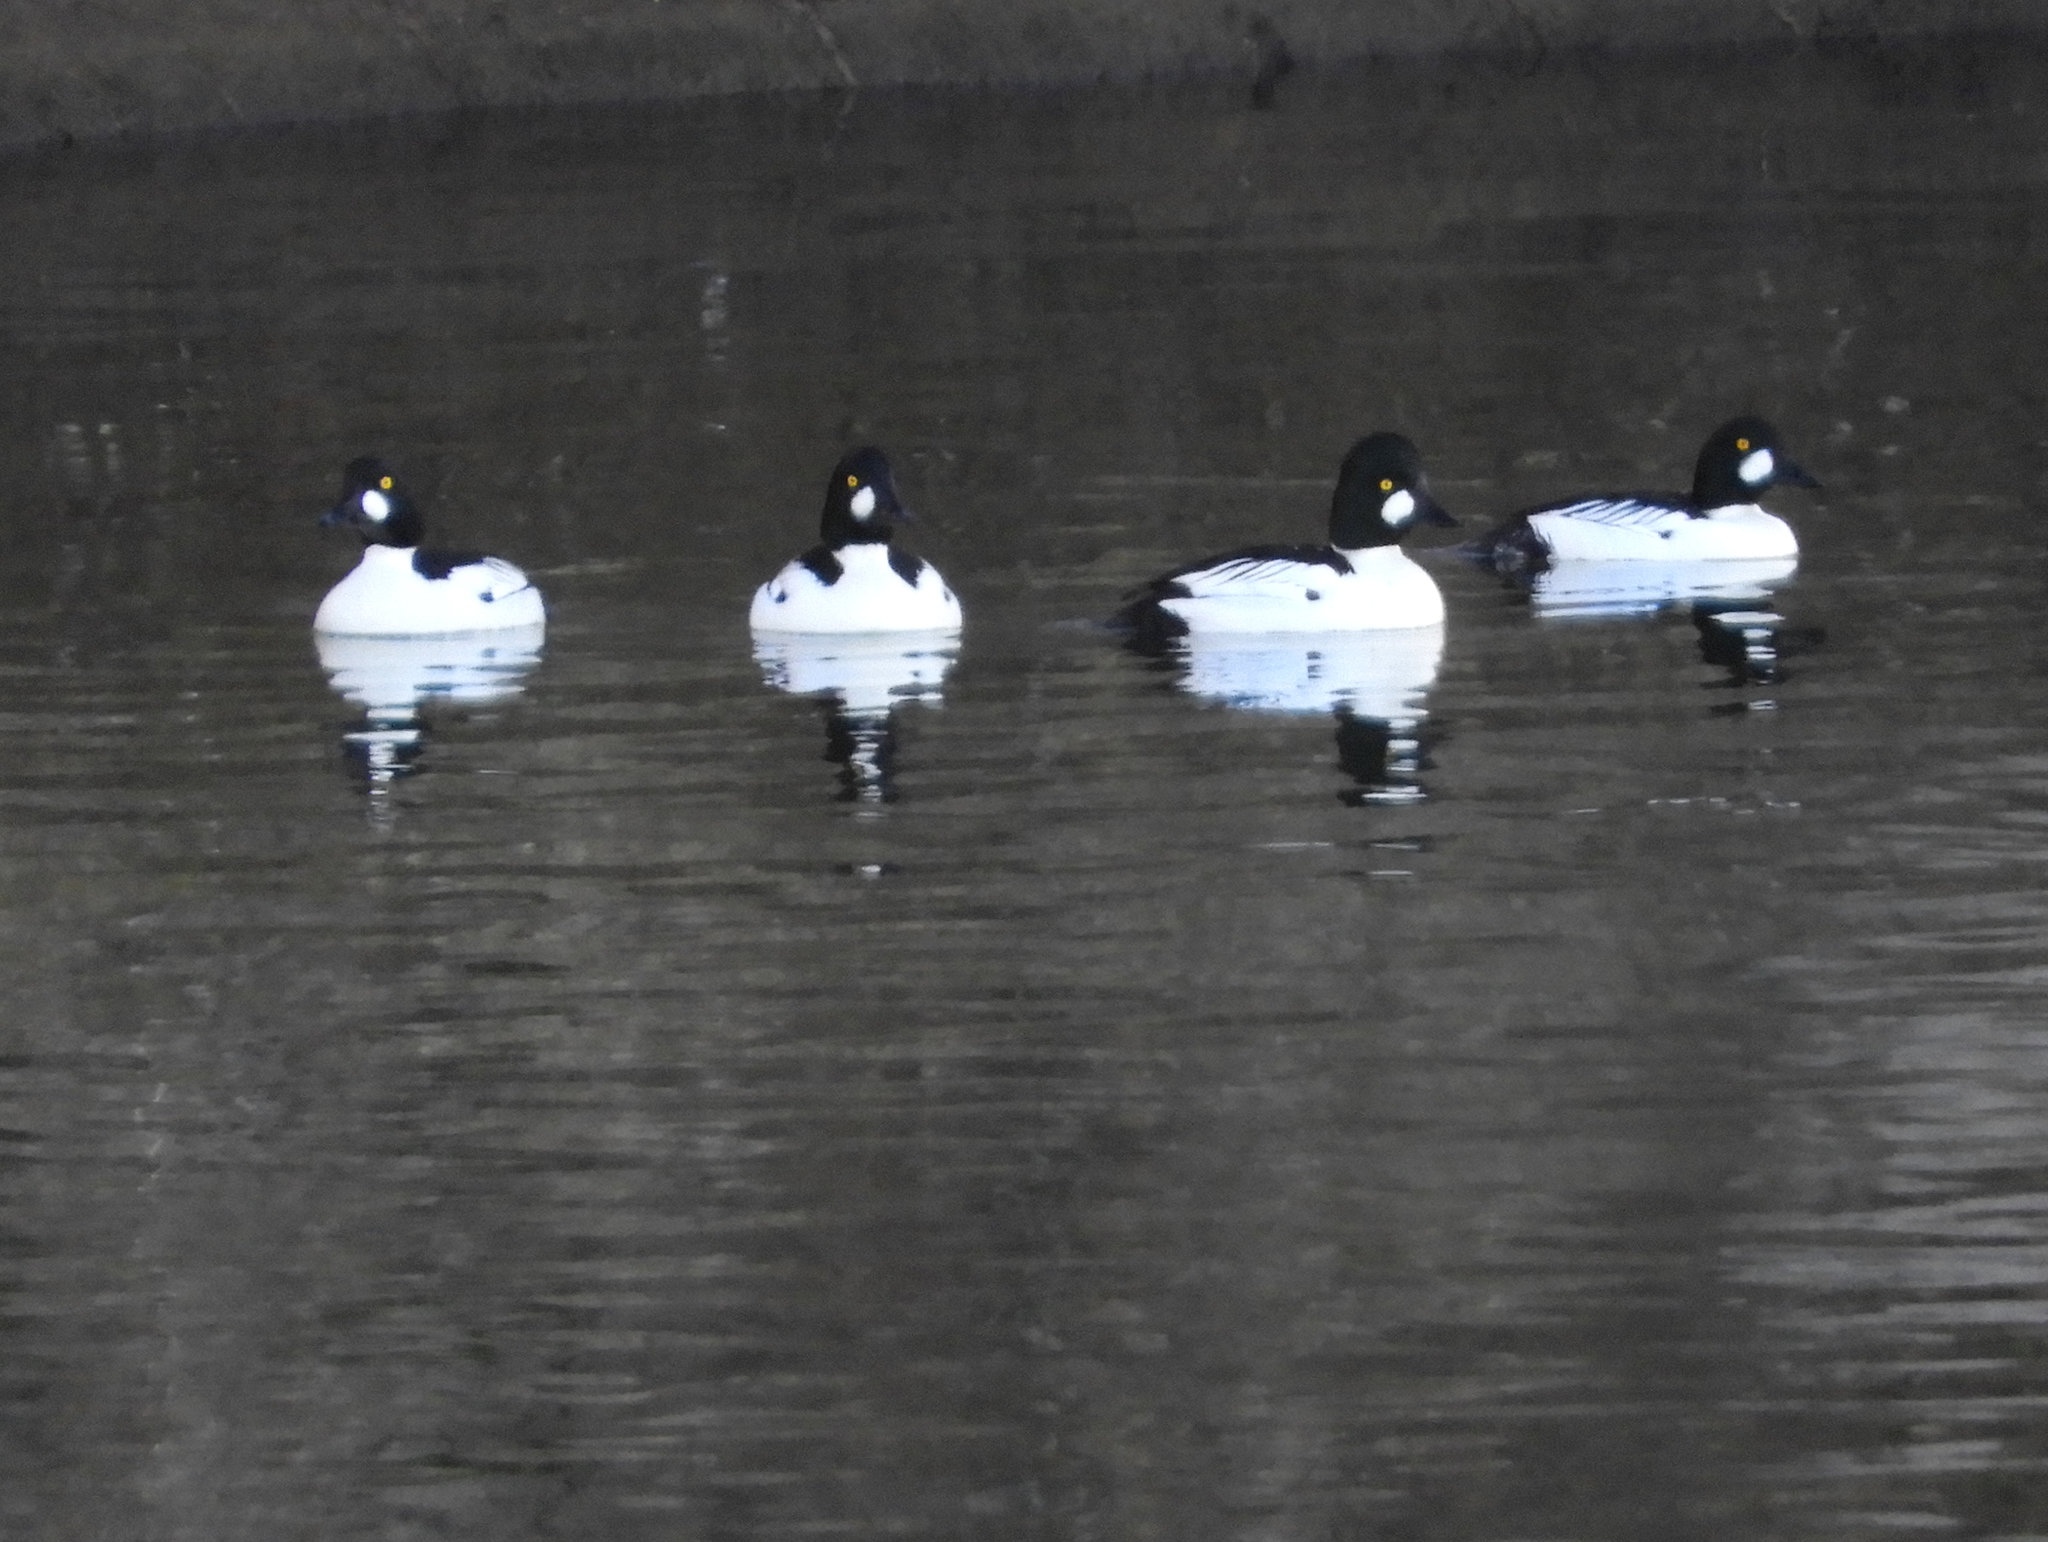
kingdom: Animalia
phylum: Chordata
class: Aves
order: Anseriformes
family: Anatidae
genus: Bucephala
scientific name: Bucephala clangula
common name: Common goldeneye
